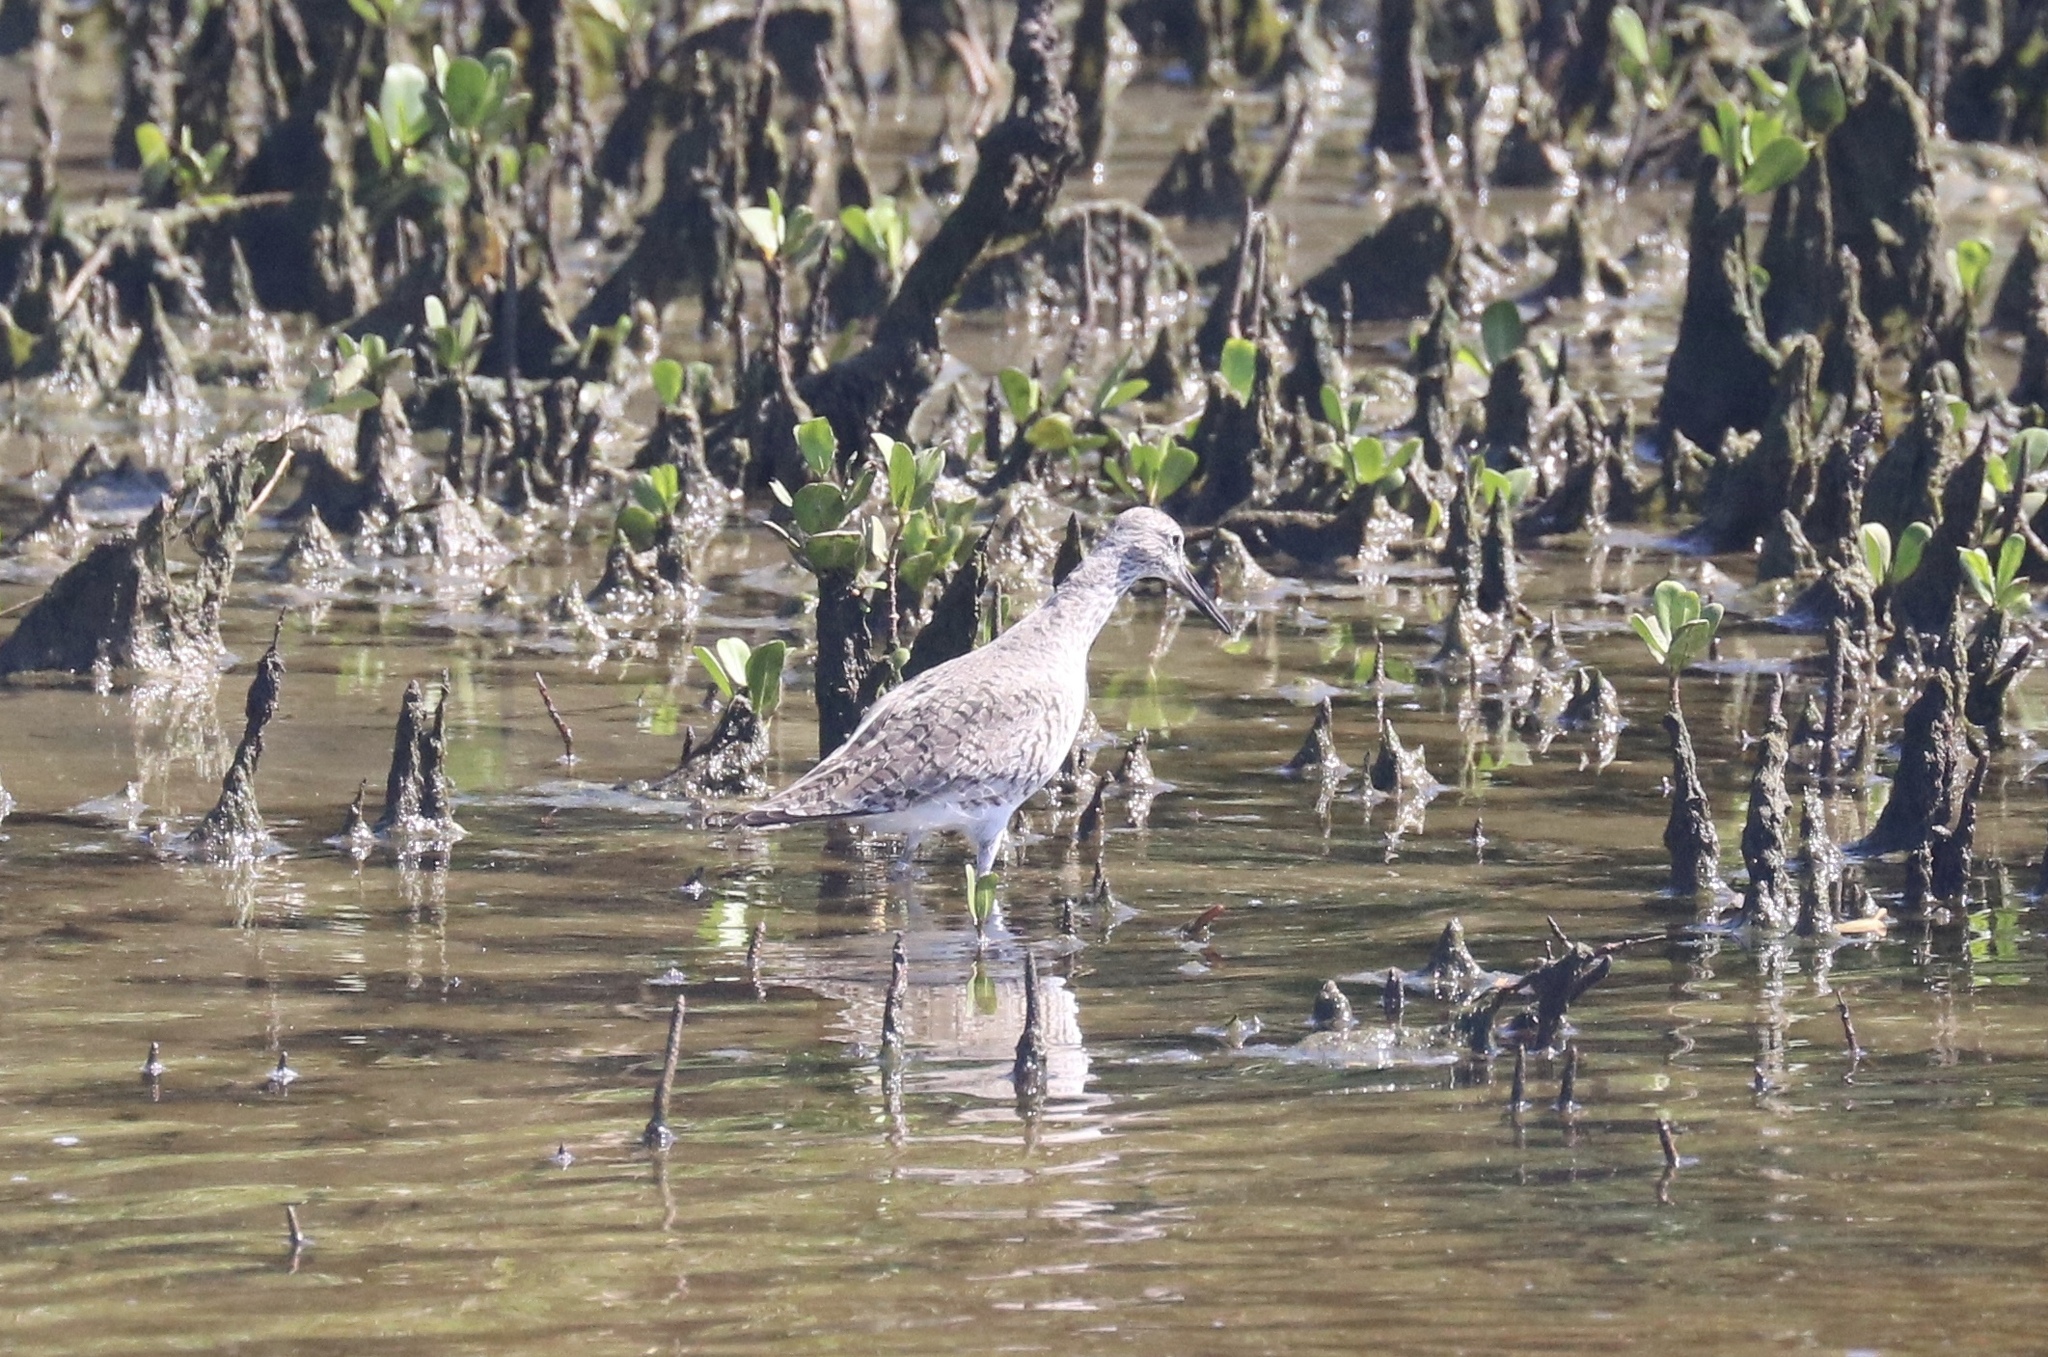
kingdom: Animalia
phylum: Chordata
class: Aves
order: Charadriiformes
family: Scolopacidae
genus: Tringa
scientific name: Tringa semipalmata
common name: Willet
